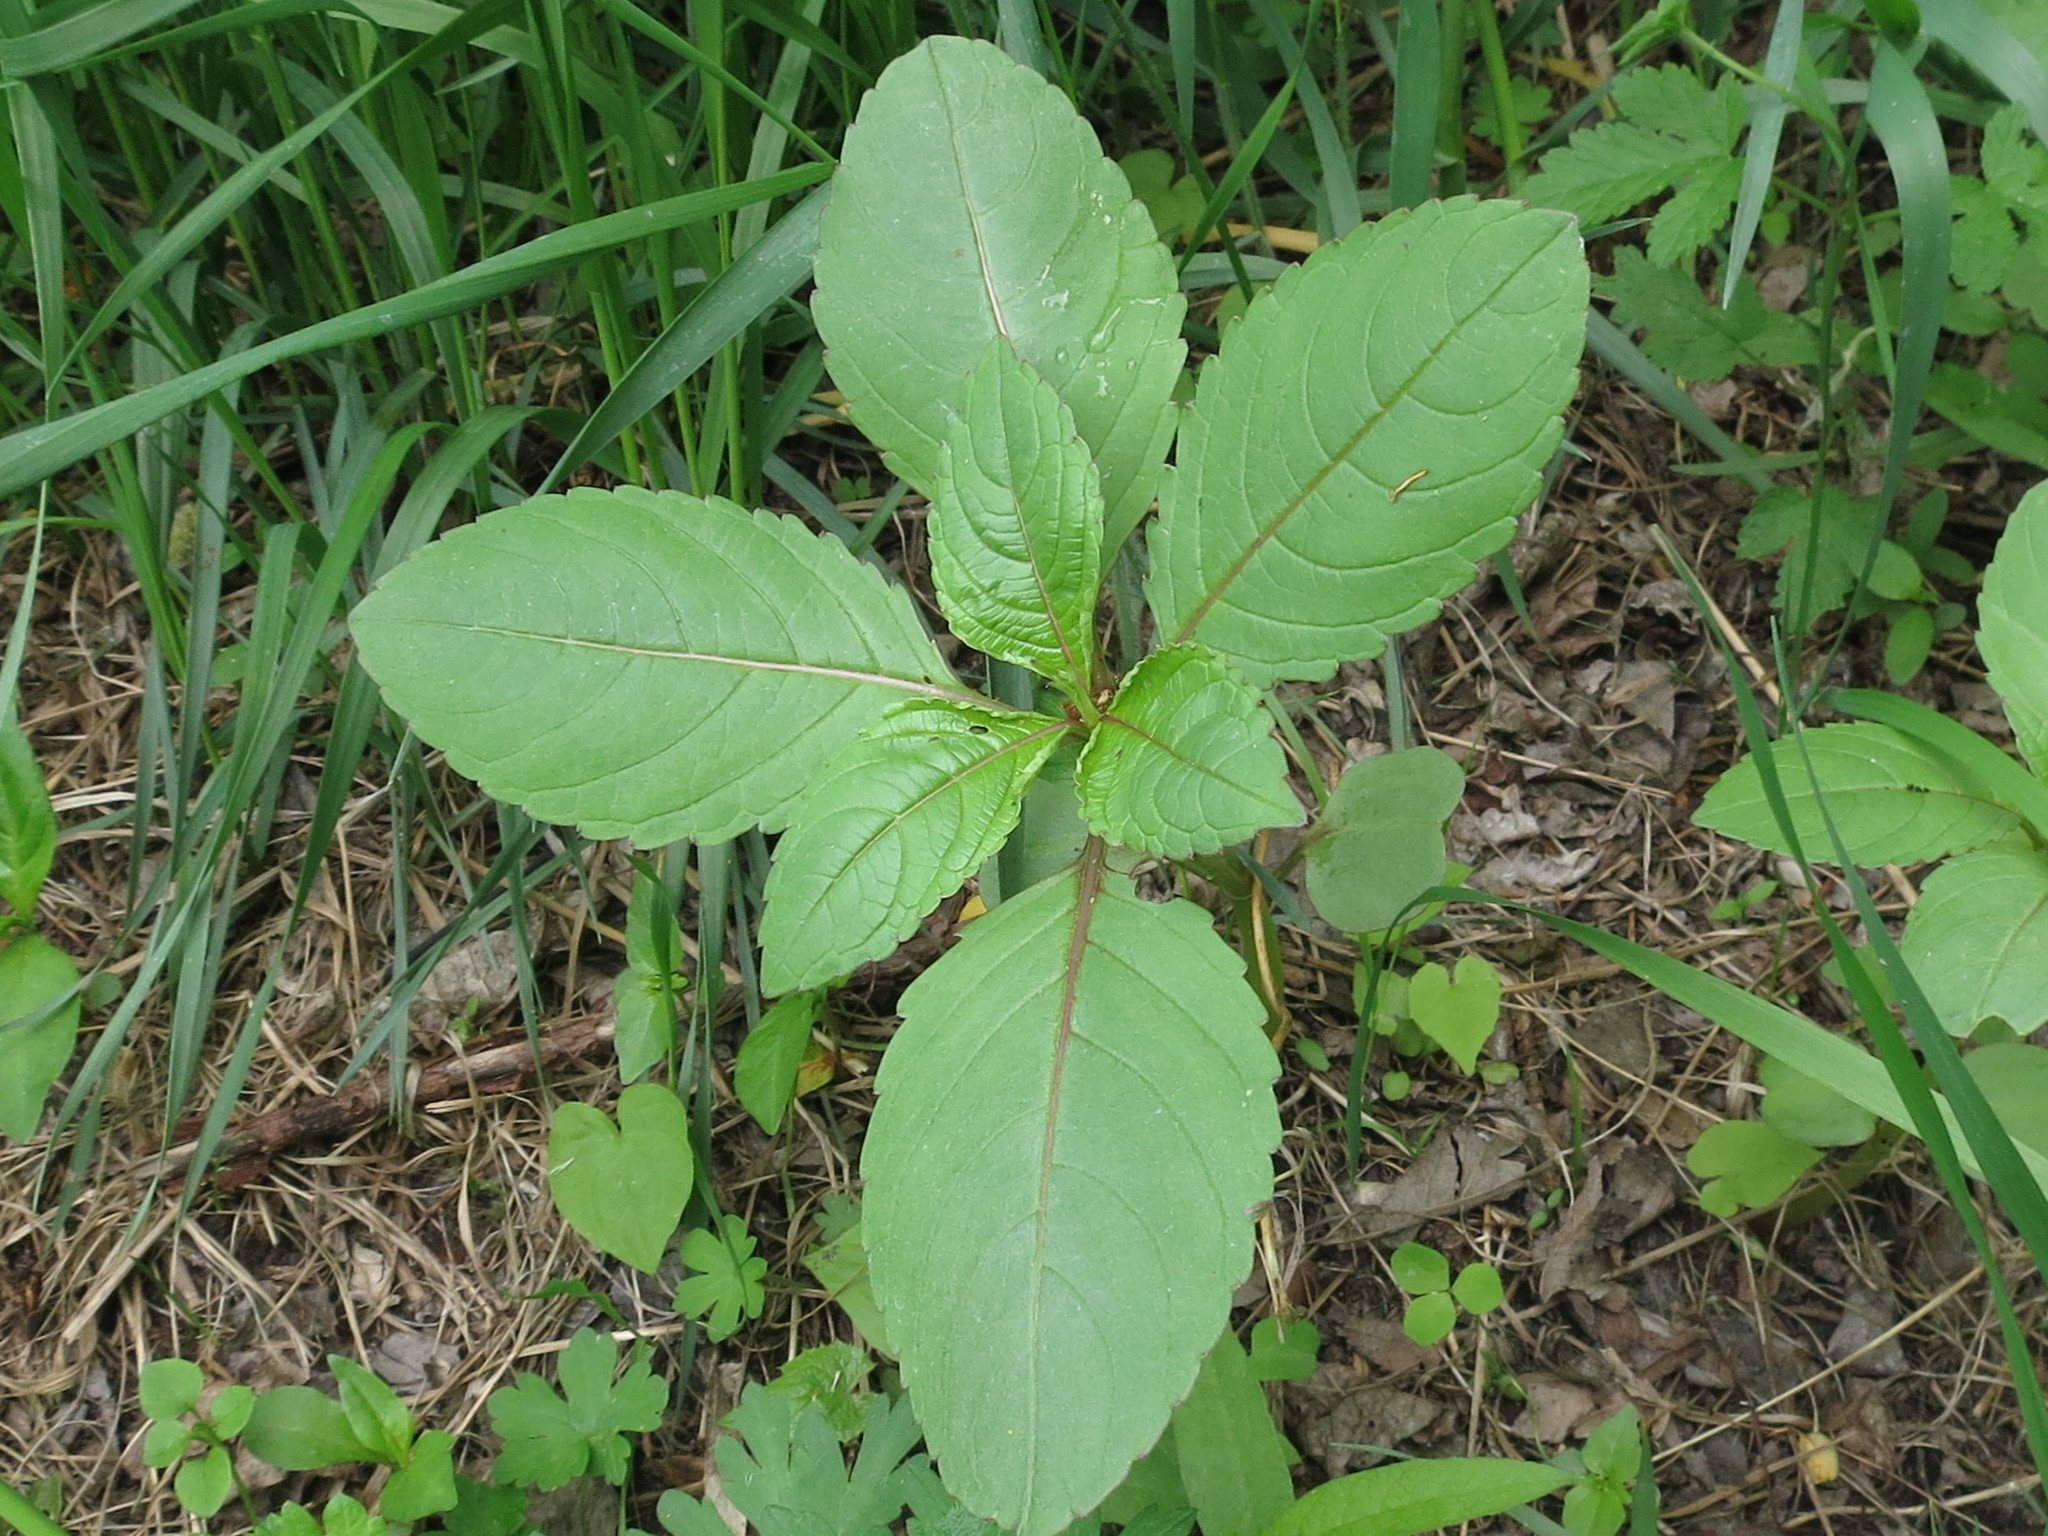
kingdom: Plantae
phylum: Tracheophyta
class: Magnoliopsida
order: Ericales
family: Balsaminaceae
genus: Impatiens
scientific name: Impatiens glandulifera
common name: Himalayan balsam
